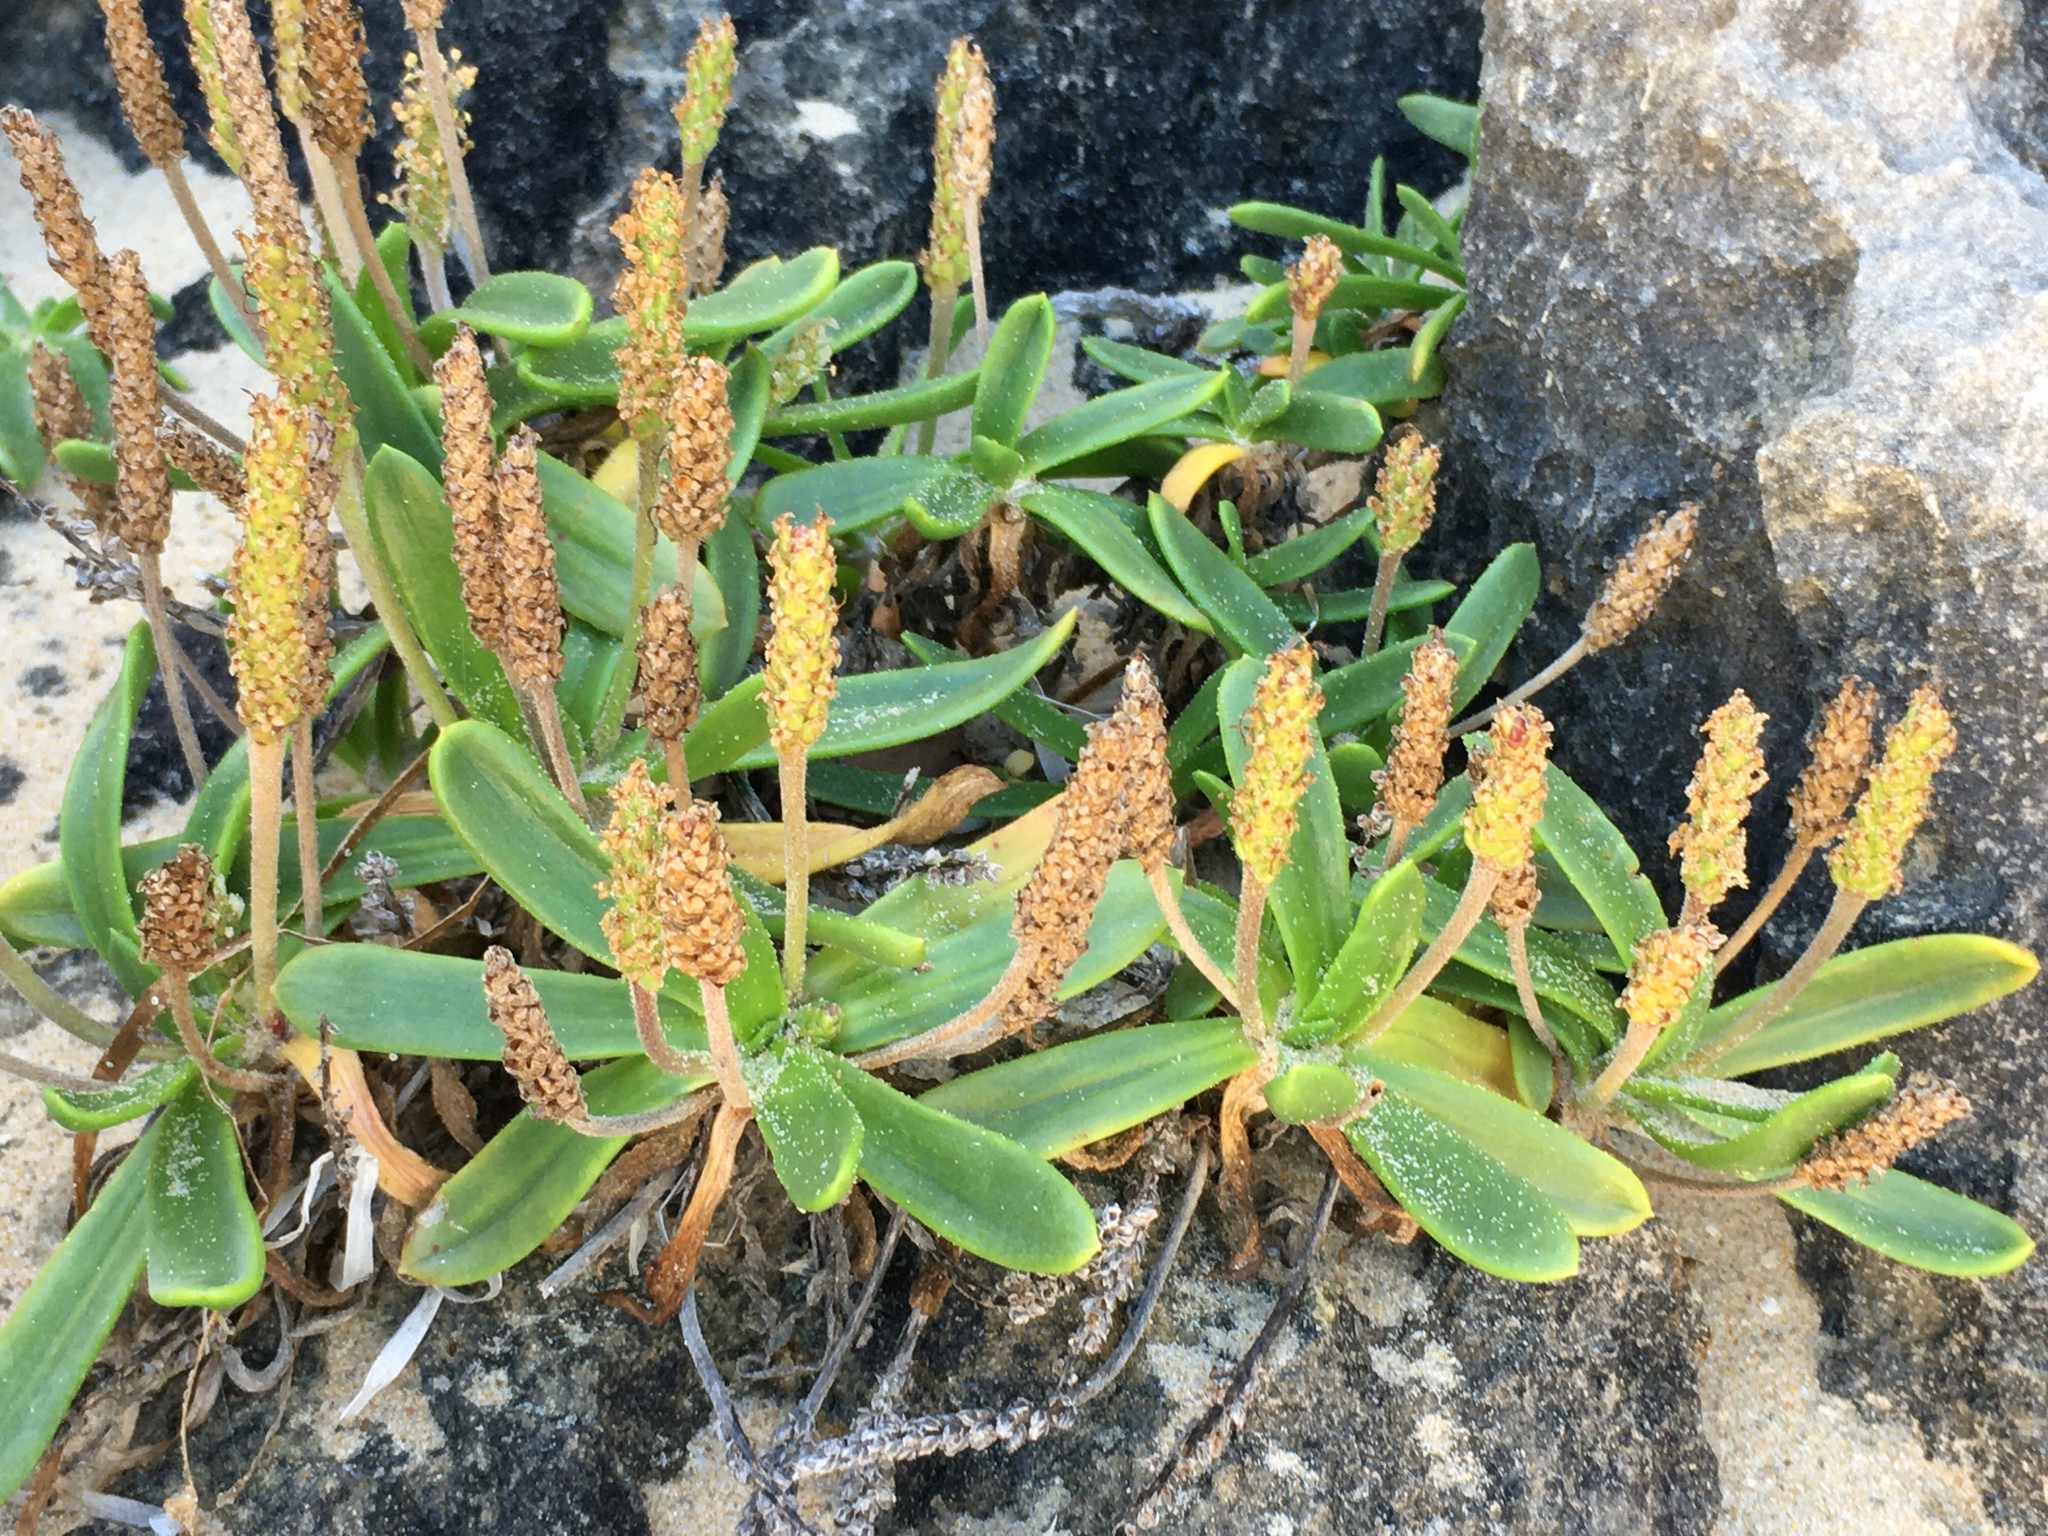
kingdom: Plantae
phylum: Tracheophyta
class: Magnoliopsida
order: Lamiales
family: Plantaginaceae
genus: Plantago
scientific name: Plantago carnosa
